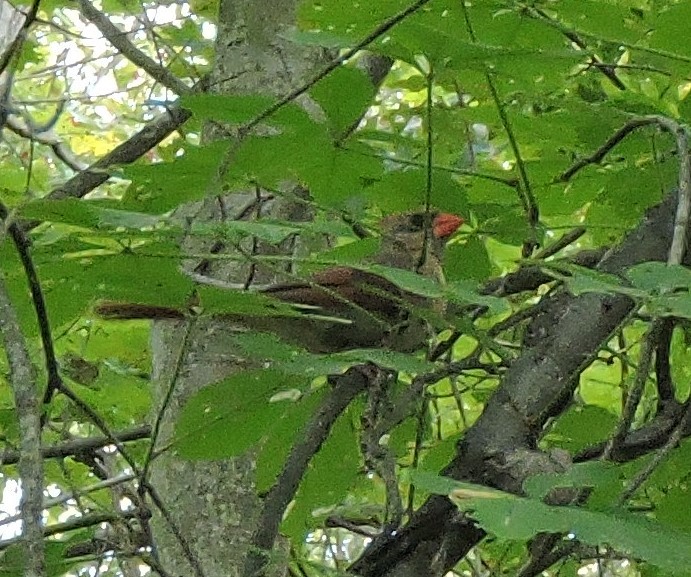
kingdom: Animalia
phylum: Chordata
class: Aves
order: Passeriformes
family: Cardinalidae
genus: Cardinalis
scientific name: Cardinalis cardinalis
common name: Northern cardinal
